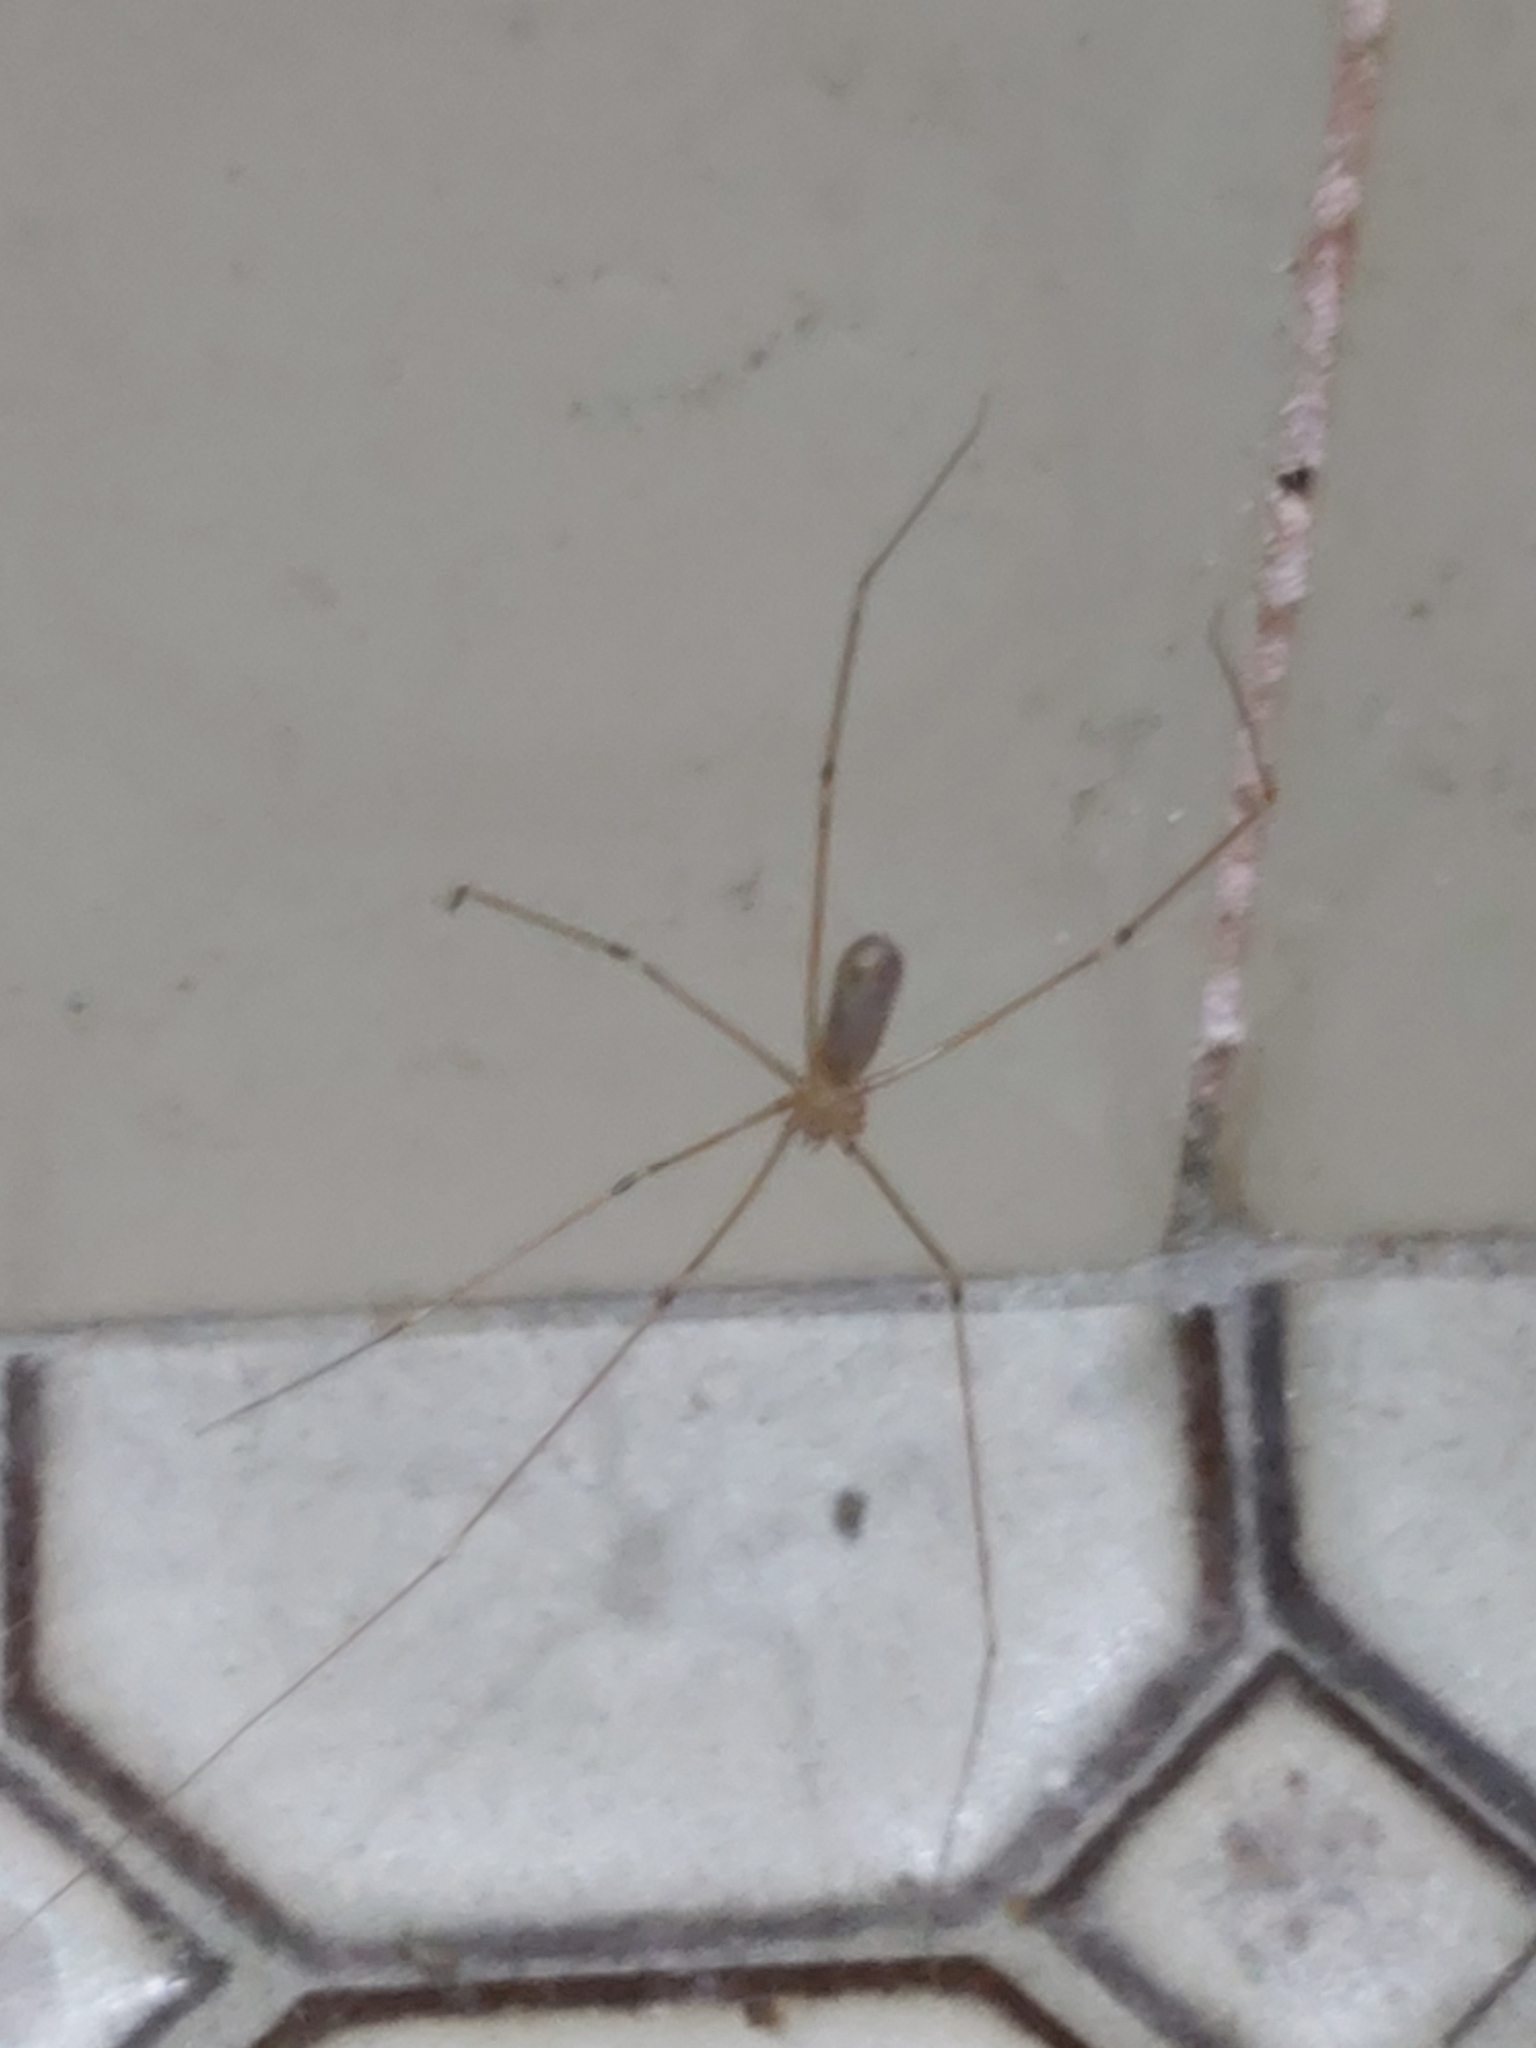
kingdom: Animalia
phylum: Arthropoda
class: Arachnida
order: Araneae
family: Pholcidae
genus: Pholcus
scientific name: Pholcus phalangioides
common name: Longbodied cellar spider
